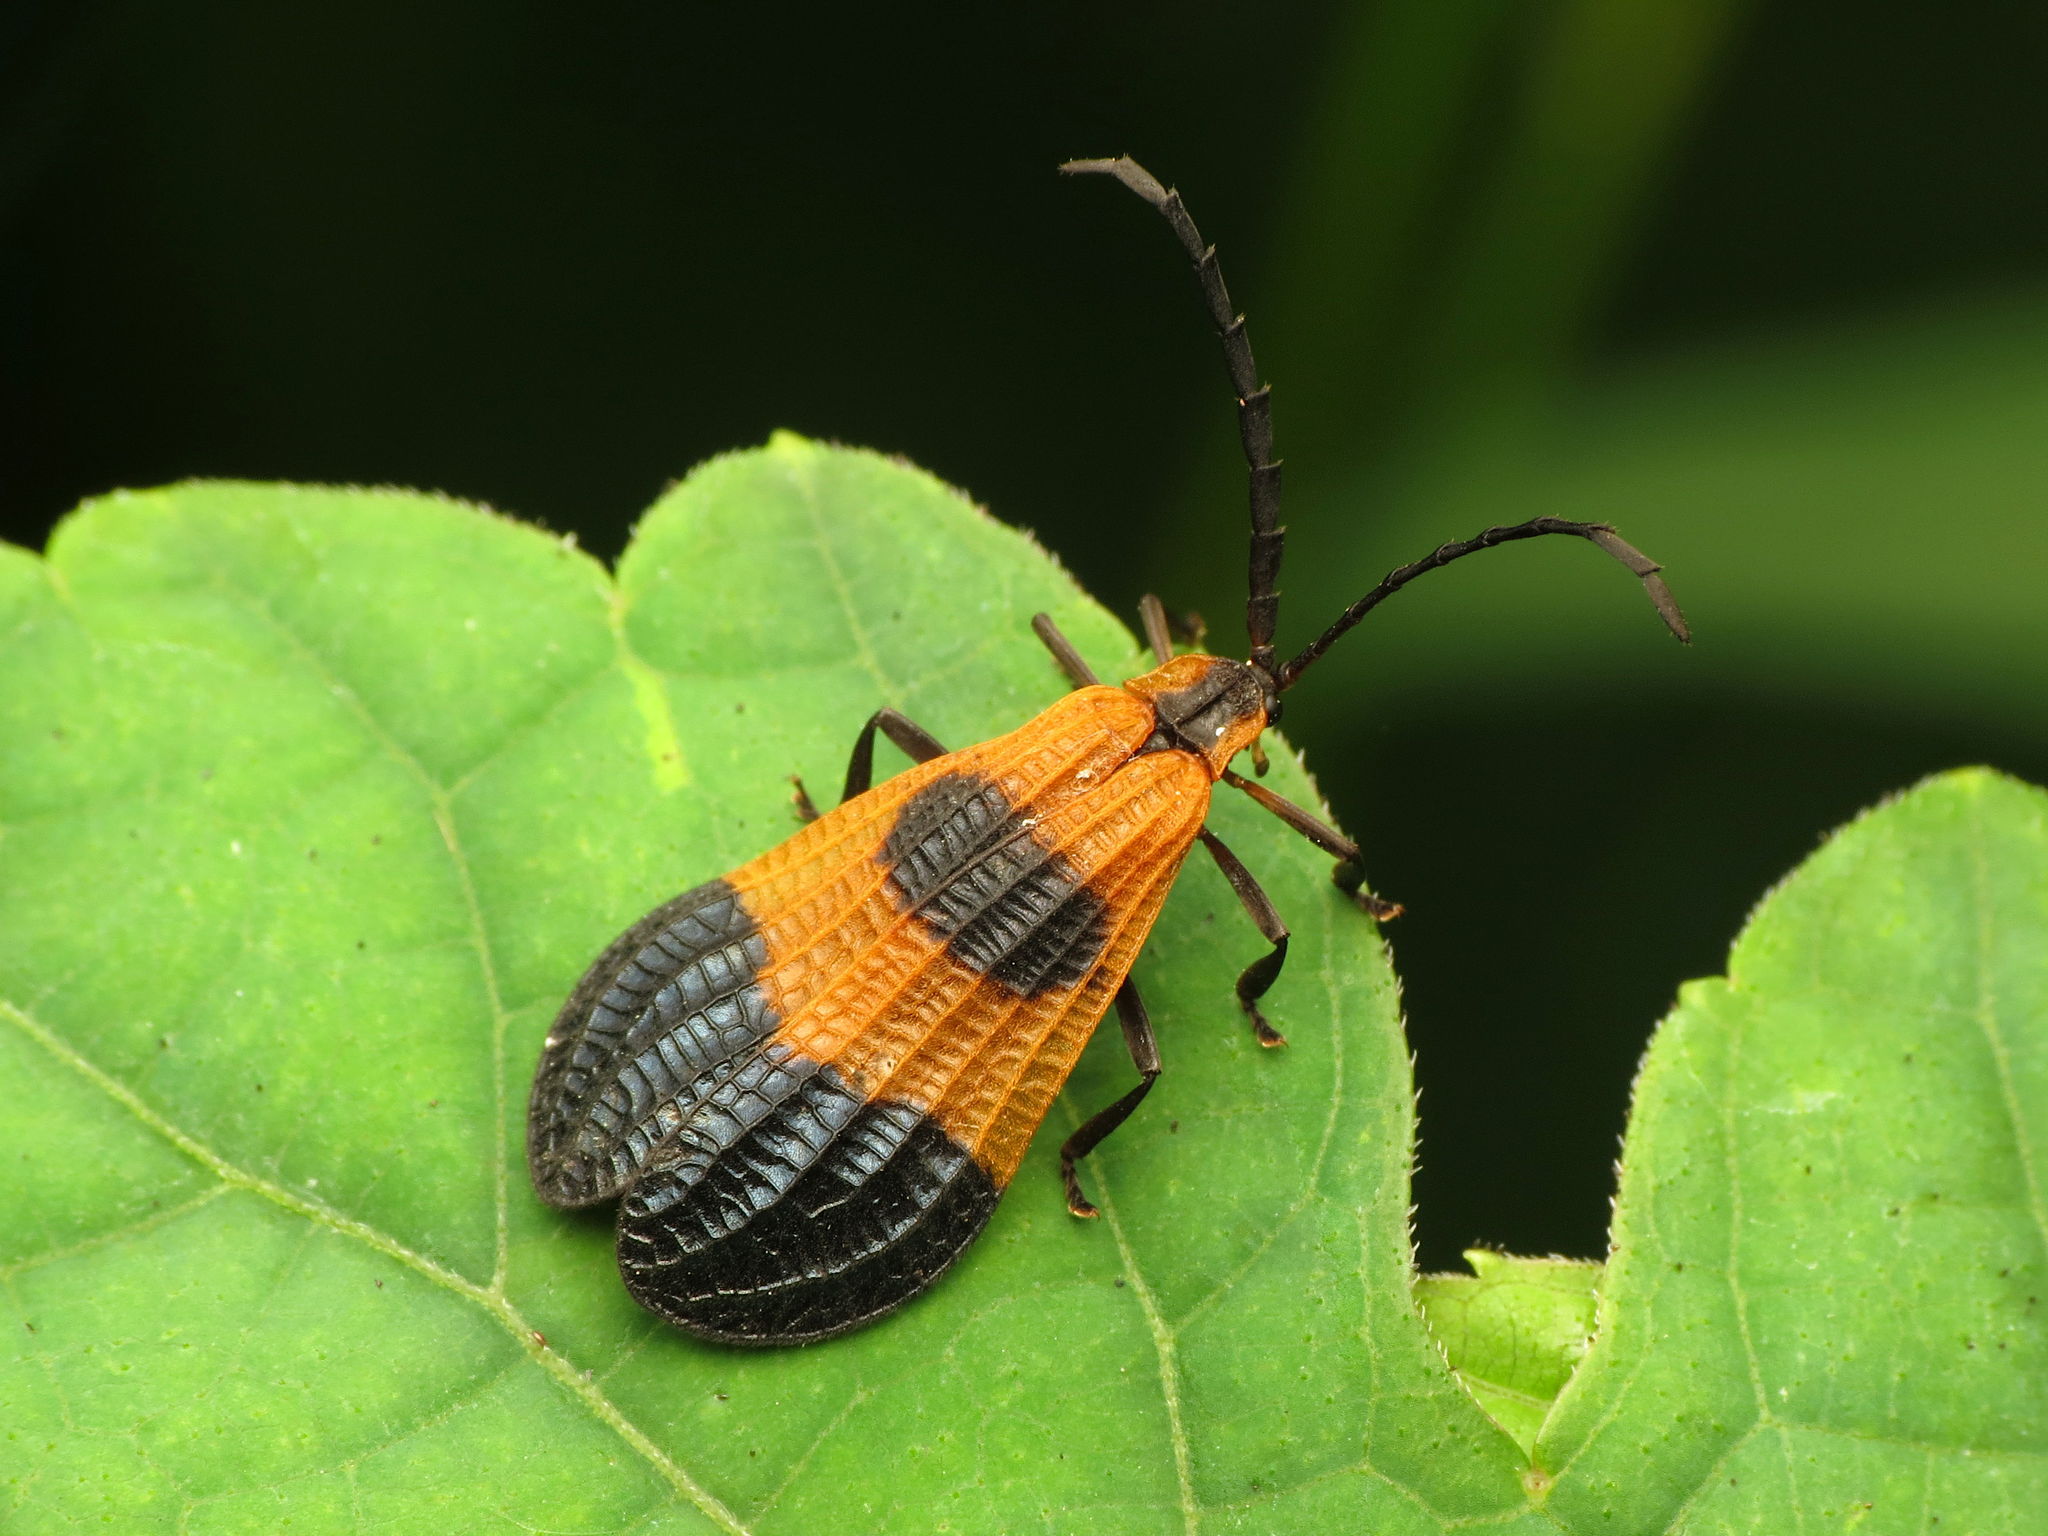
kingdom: Animalia
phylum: Arthropoda
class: Insecta
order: Coleoptera
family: Lycidae
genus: Calopteron
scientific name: Calopteron terminale
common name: End band net-winged beetle
